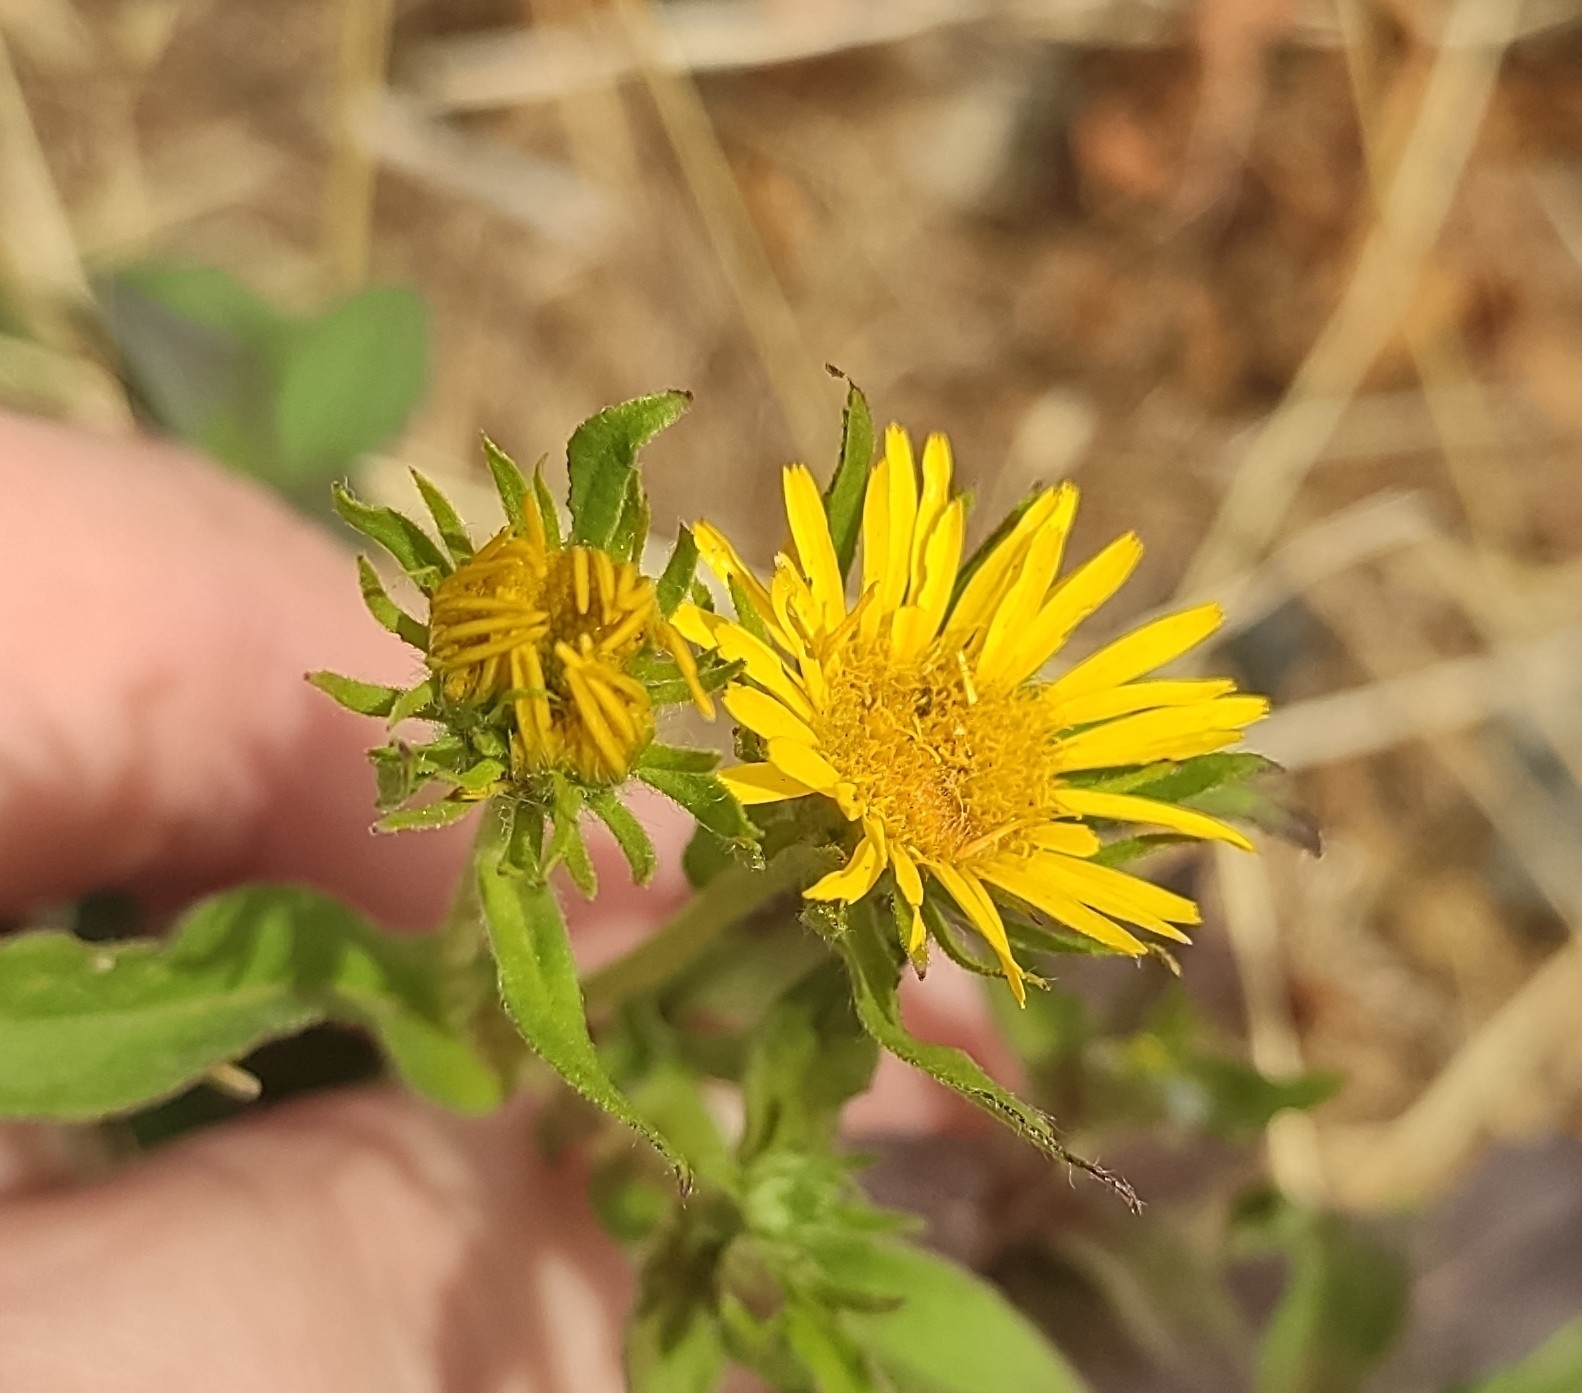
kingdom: Plantae
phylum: Tracheophyta
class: Magnoliopsida
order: Asterales
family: Asteraceae
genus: Pentanema
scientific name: Pentanema britannicum
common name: British elecampane
